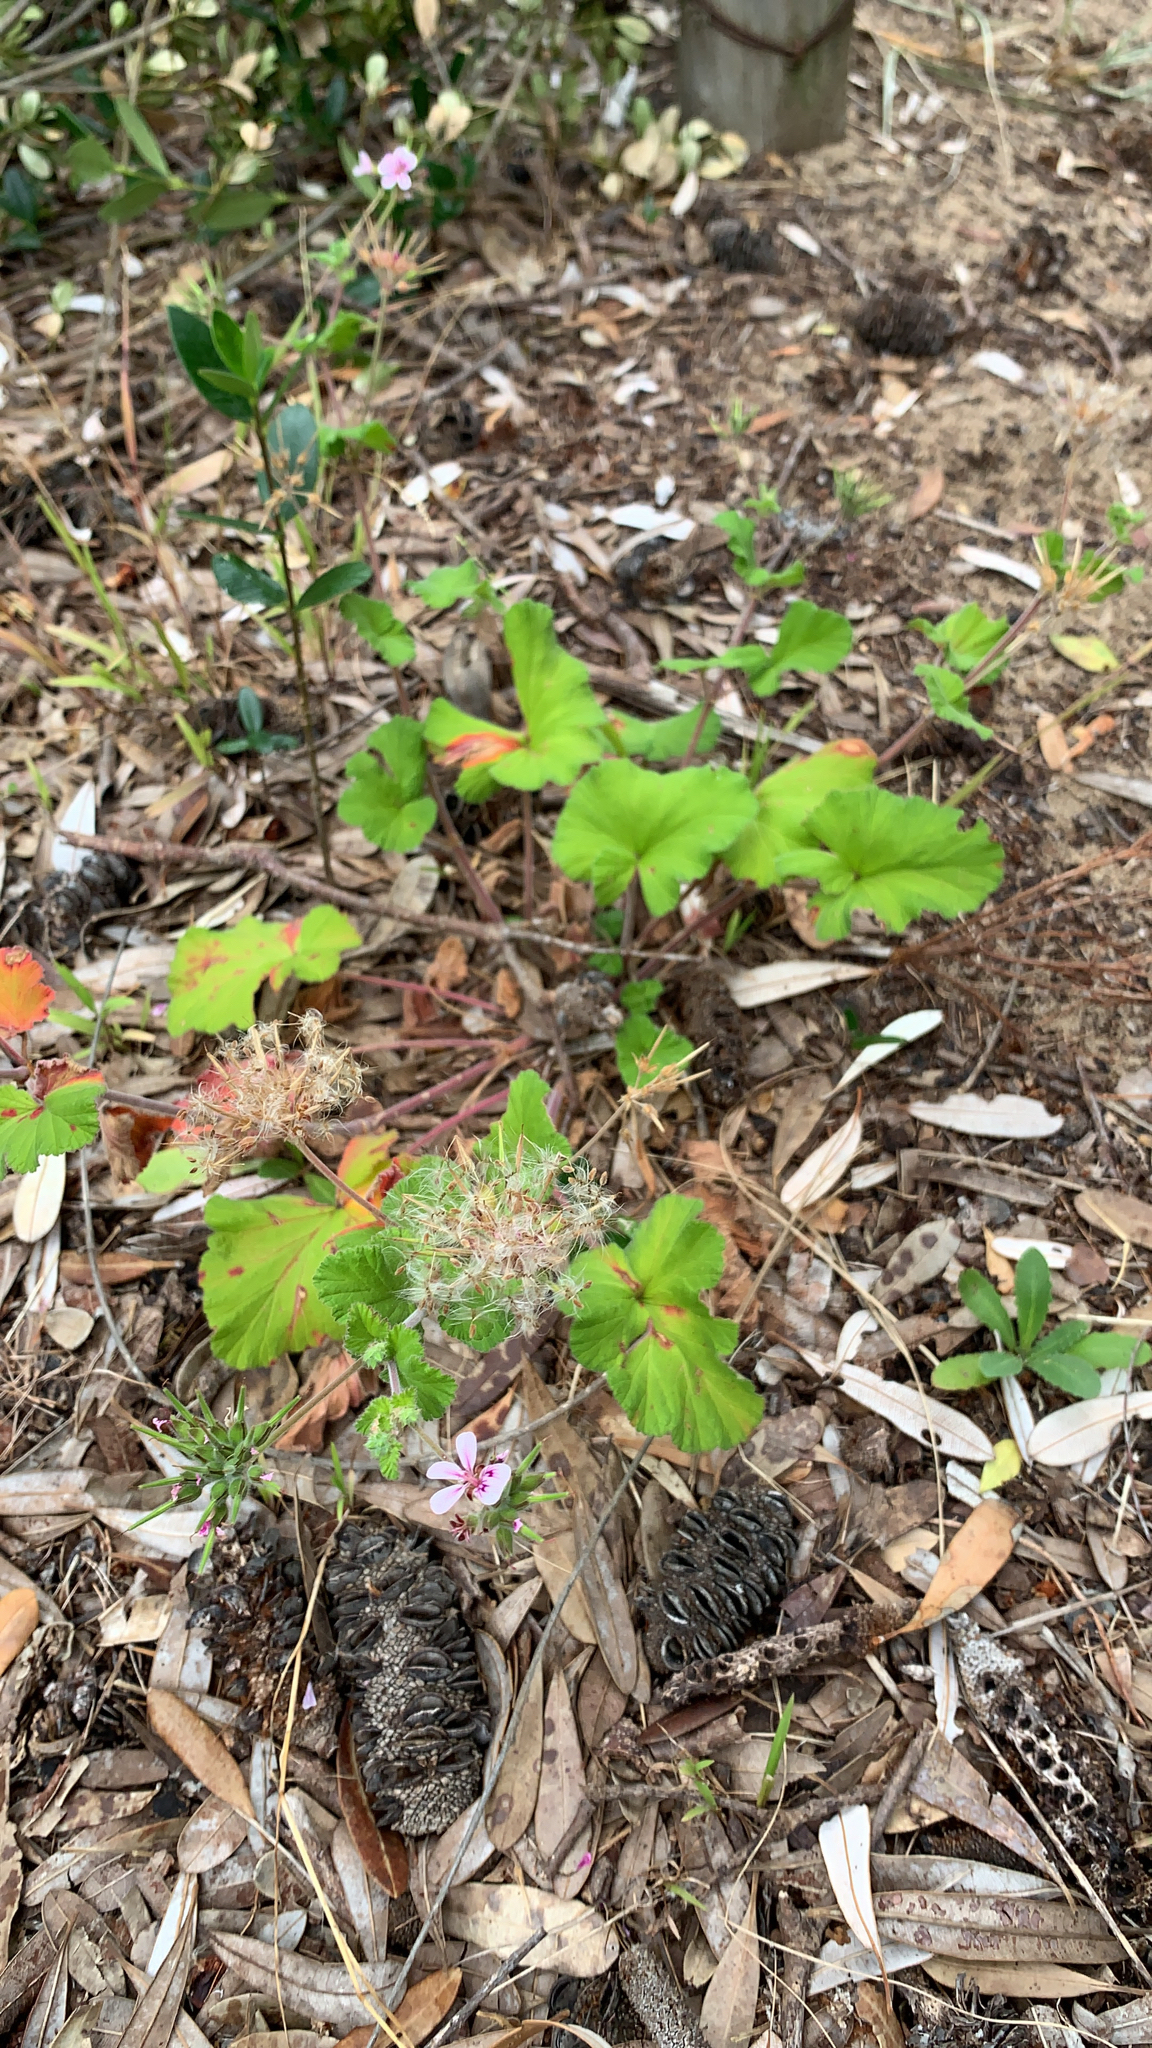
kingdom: Plantae
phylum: Tracheophyta
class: Magnoliopsida
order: Geraniales
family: Geraniaceae
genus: Pelargonium
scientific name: Pelargonium australe
